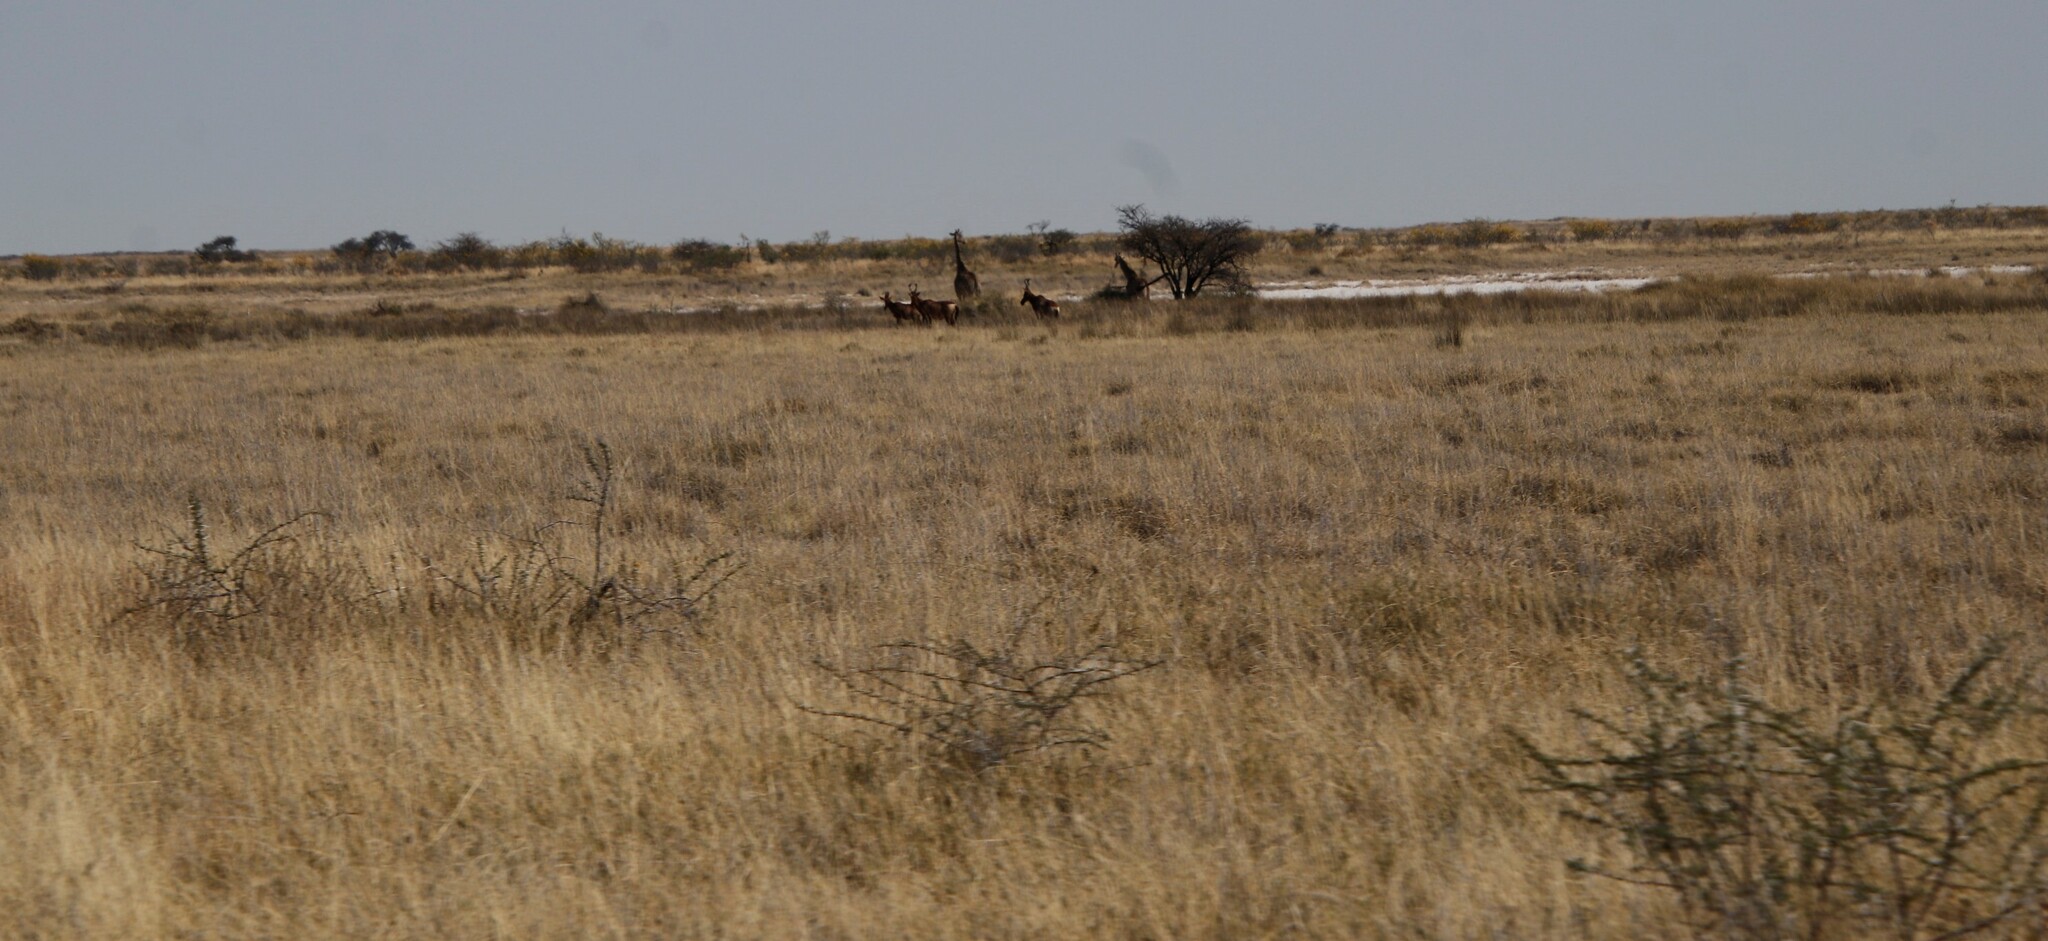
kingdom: Animalia
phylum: Chordata
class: Mammalia
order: Artiodactyla
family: Giraffidae
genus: Giraffa
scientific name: Giraffa giraffa
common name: Southern giraffe
